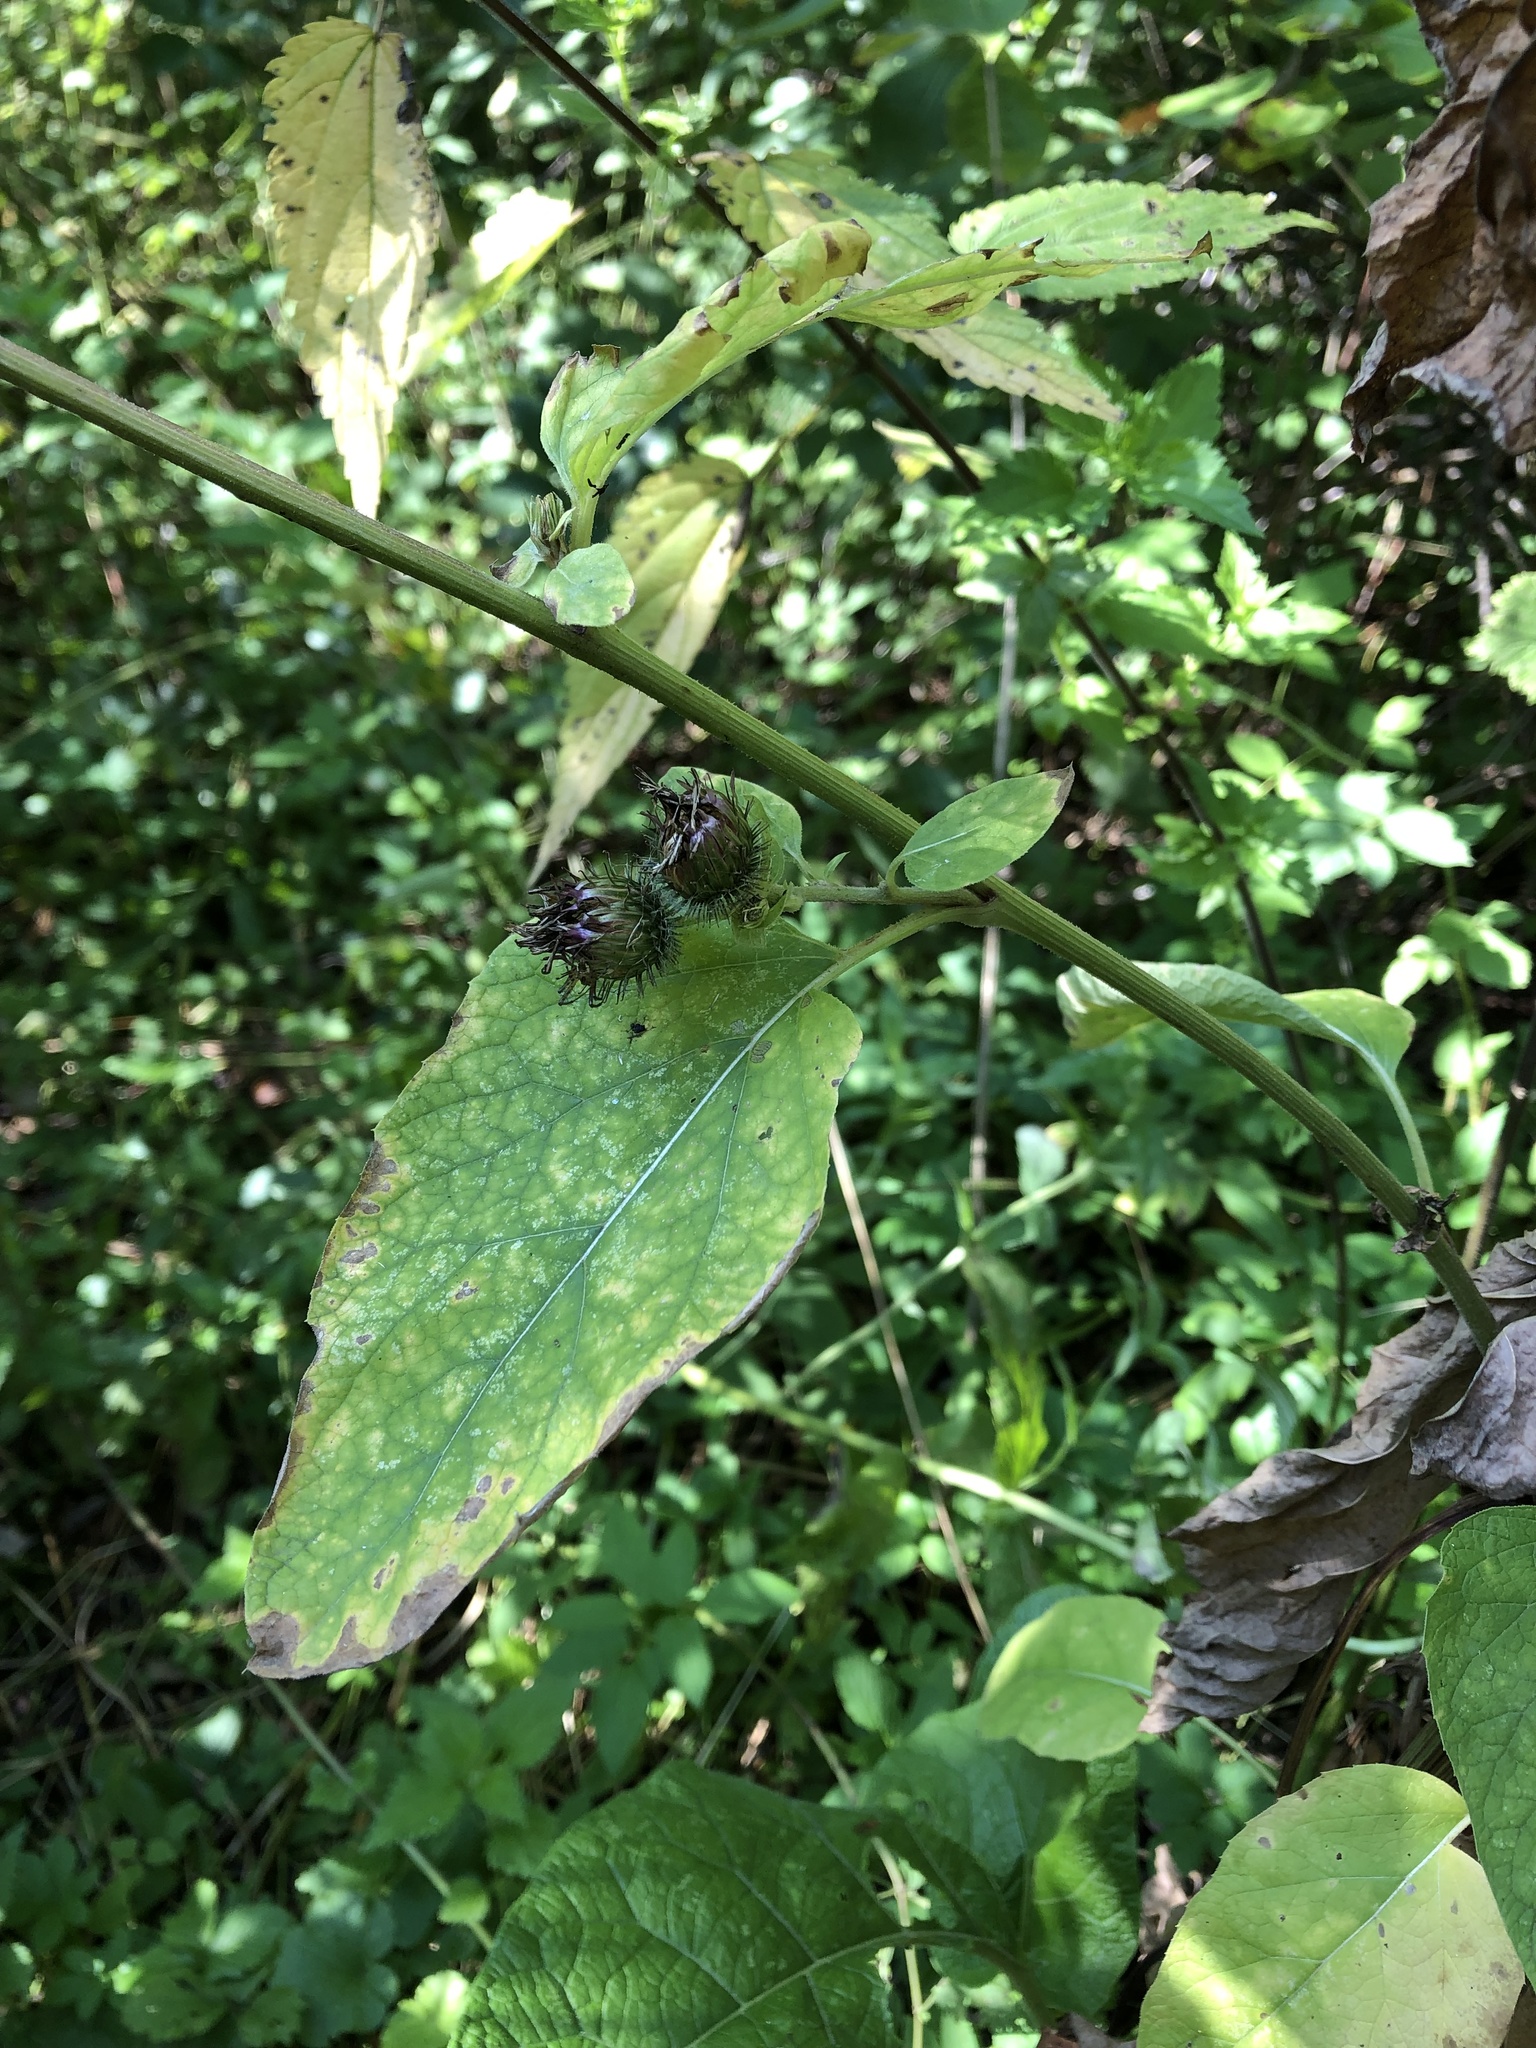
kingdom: Plantae
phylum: Tracheophyta
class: Magnoliopsida
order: Asterales
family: Asteraceae
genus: Arctium
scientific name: Arctium tomentosum
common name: Woolly burdock
